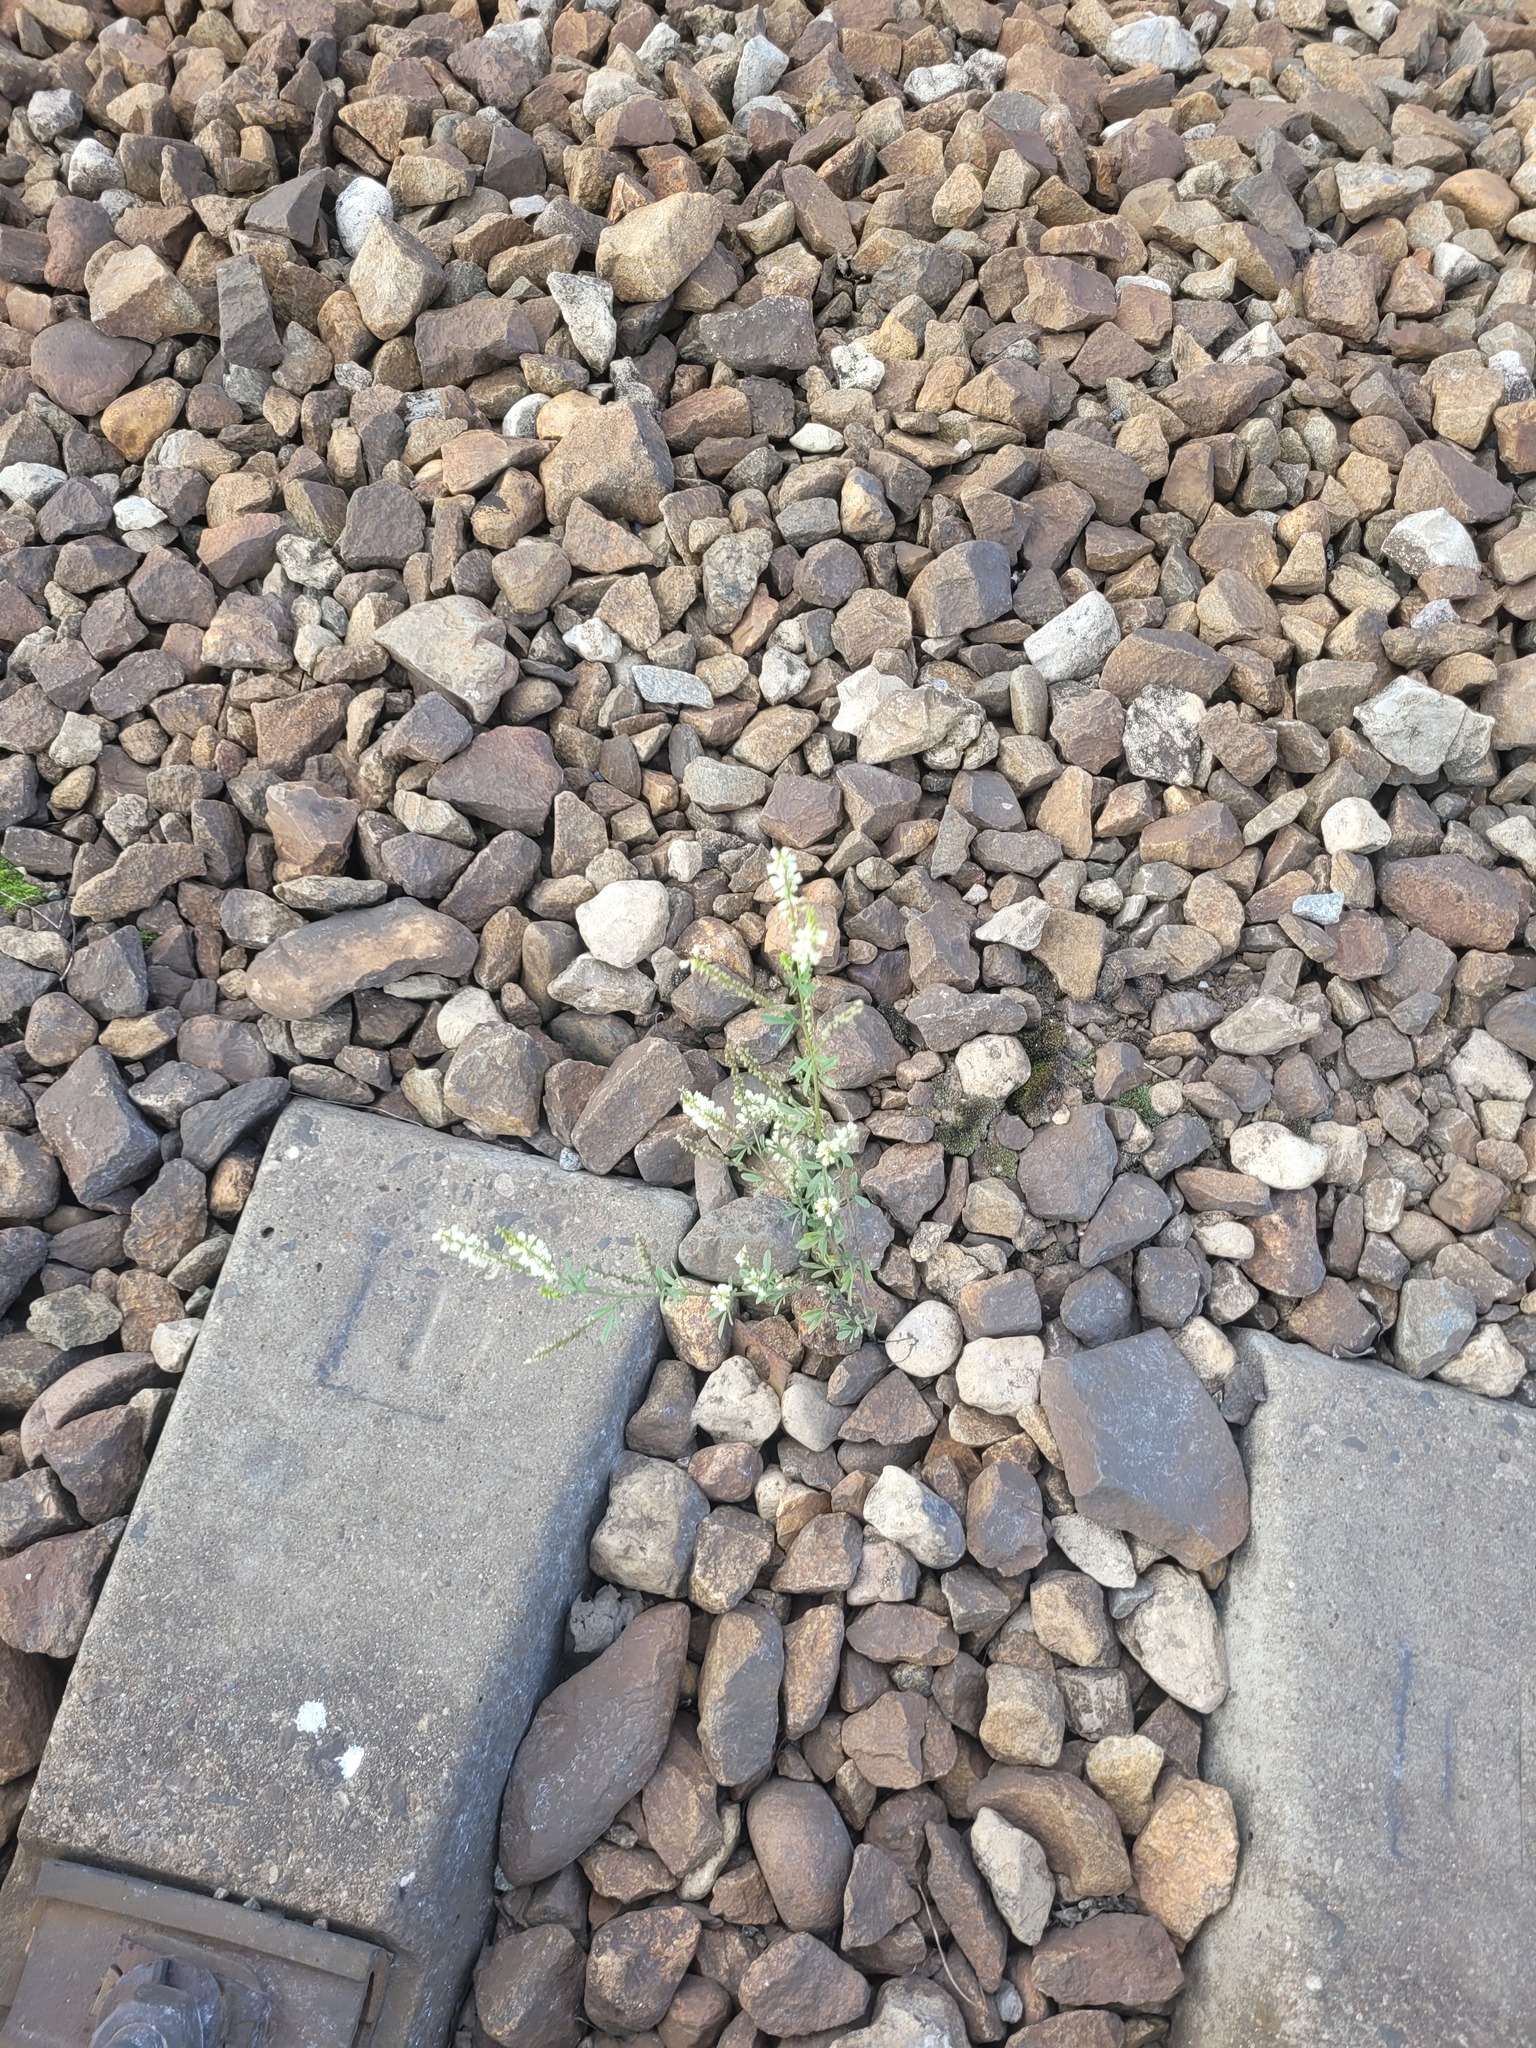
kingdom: Plantae
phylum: Tracheophyta
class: Magnoliopsida
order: Fabales
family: Fabaceae
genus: Melilotus
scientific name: Melilotus albus
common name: White melilot
